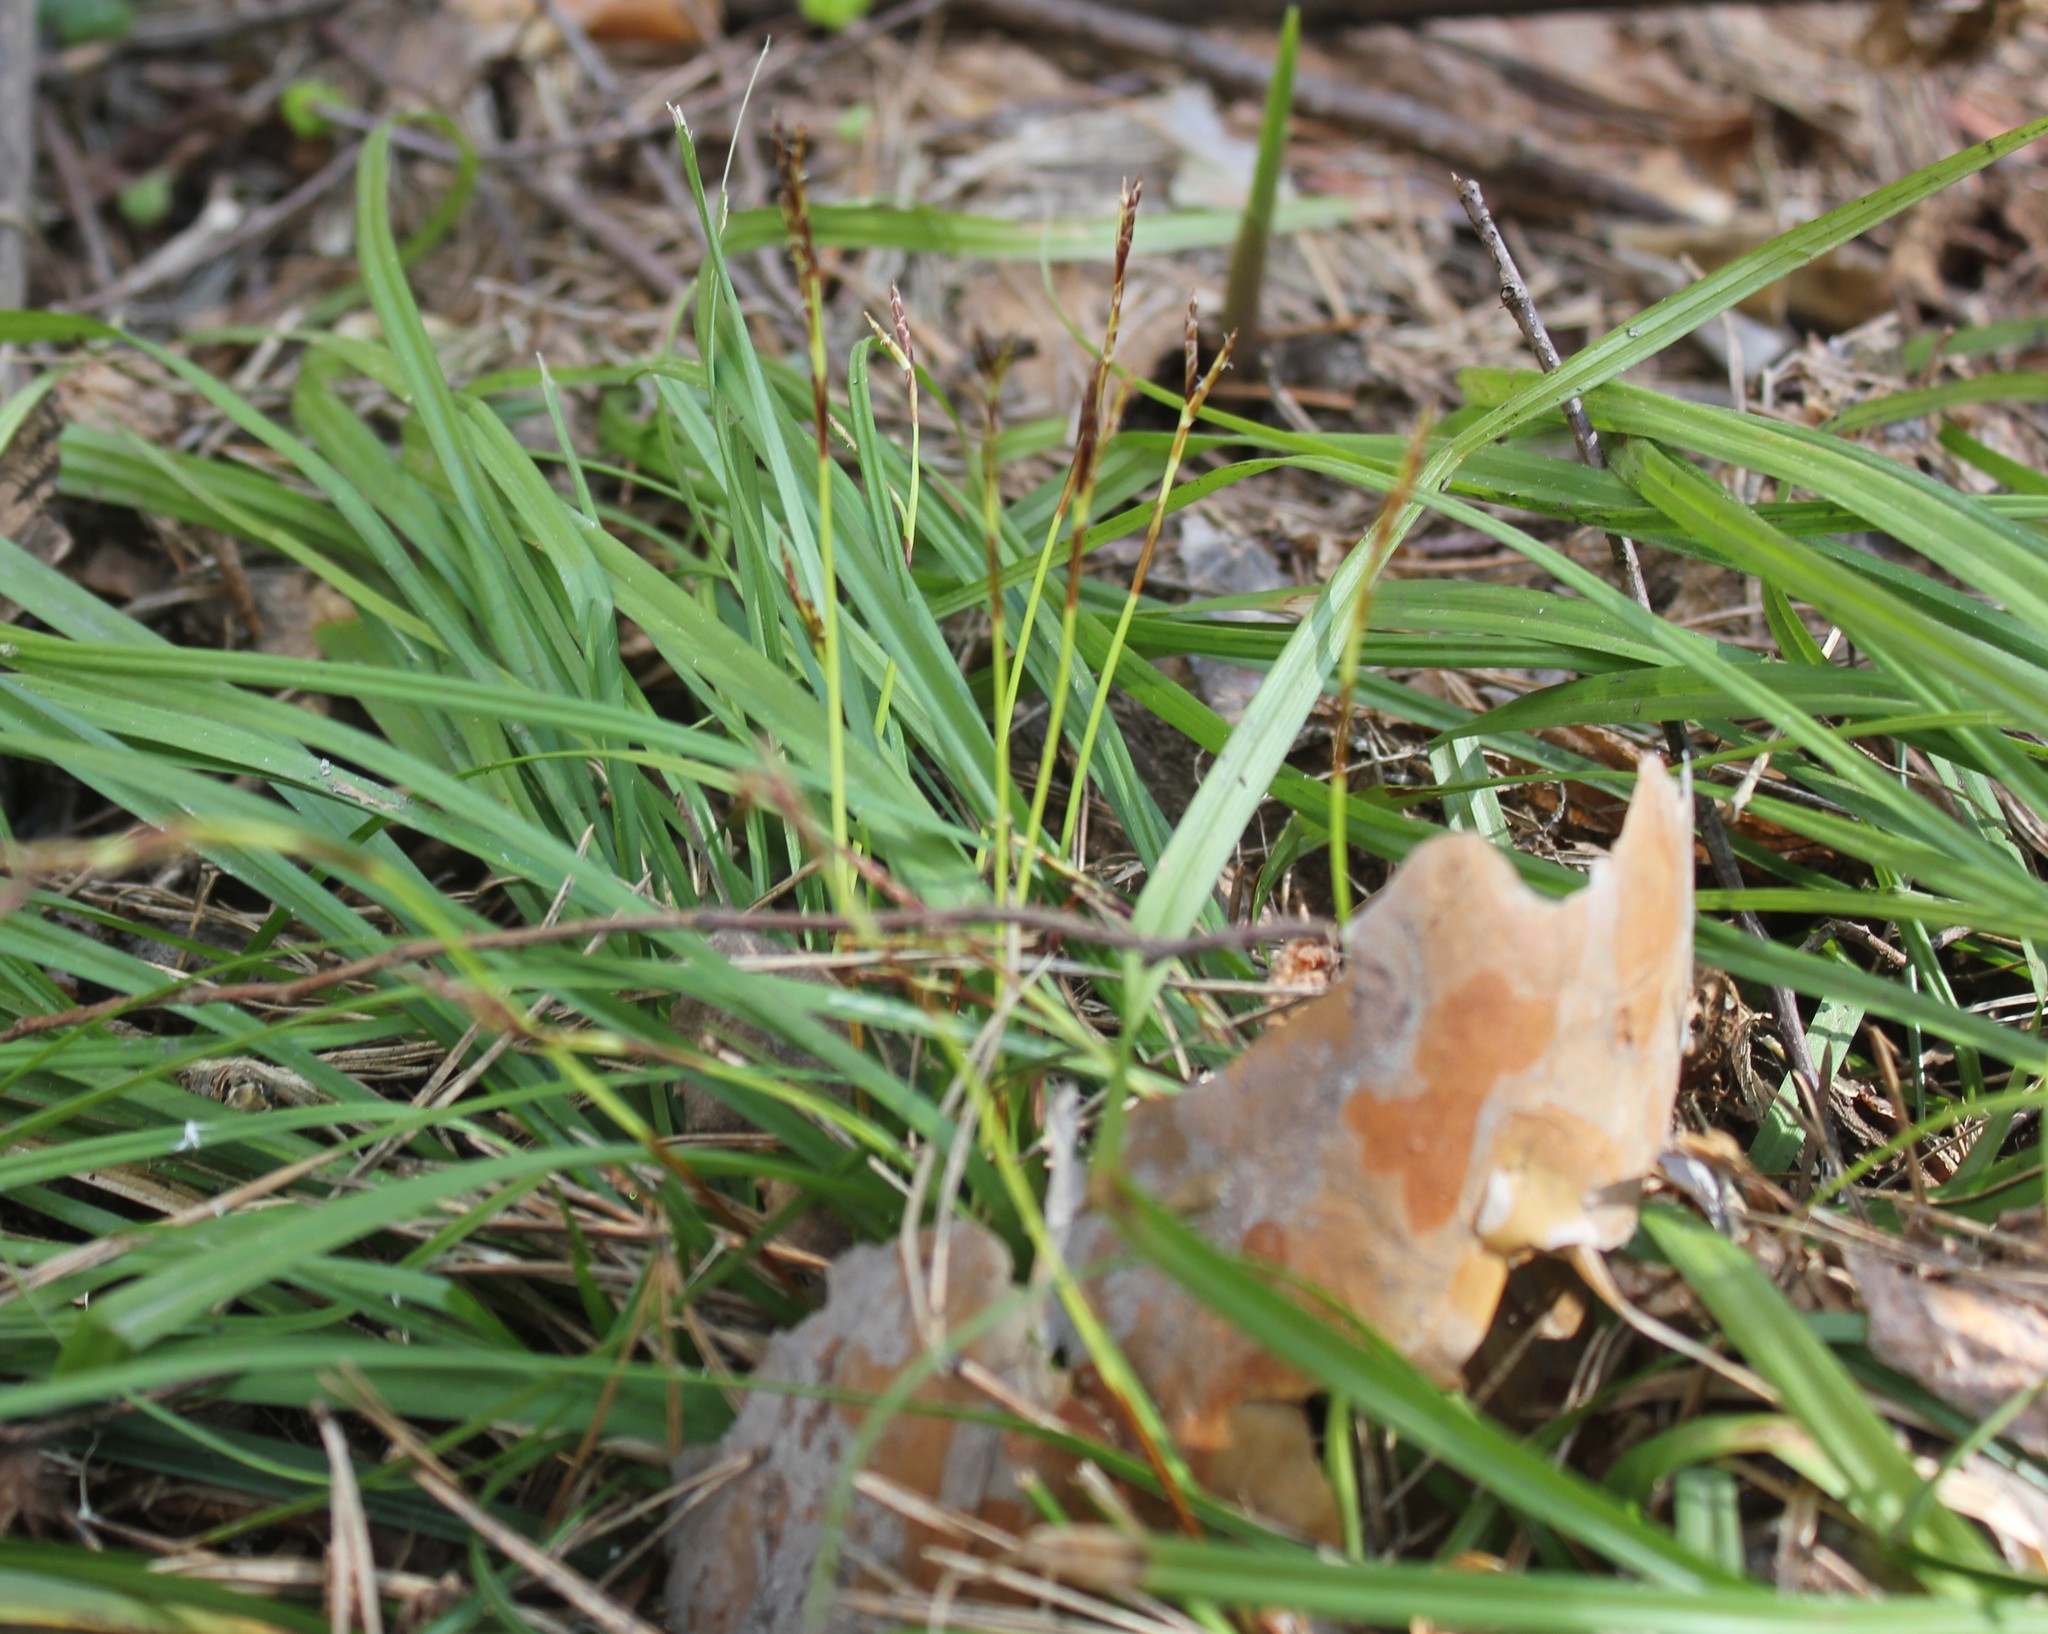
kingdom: Plantae
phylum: Tracheophyta
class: Liliopsida
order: Poales
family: Cyperaceae
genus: Carex
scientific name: Carex digitata
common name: Fingered sedge
